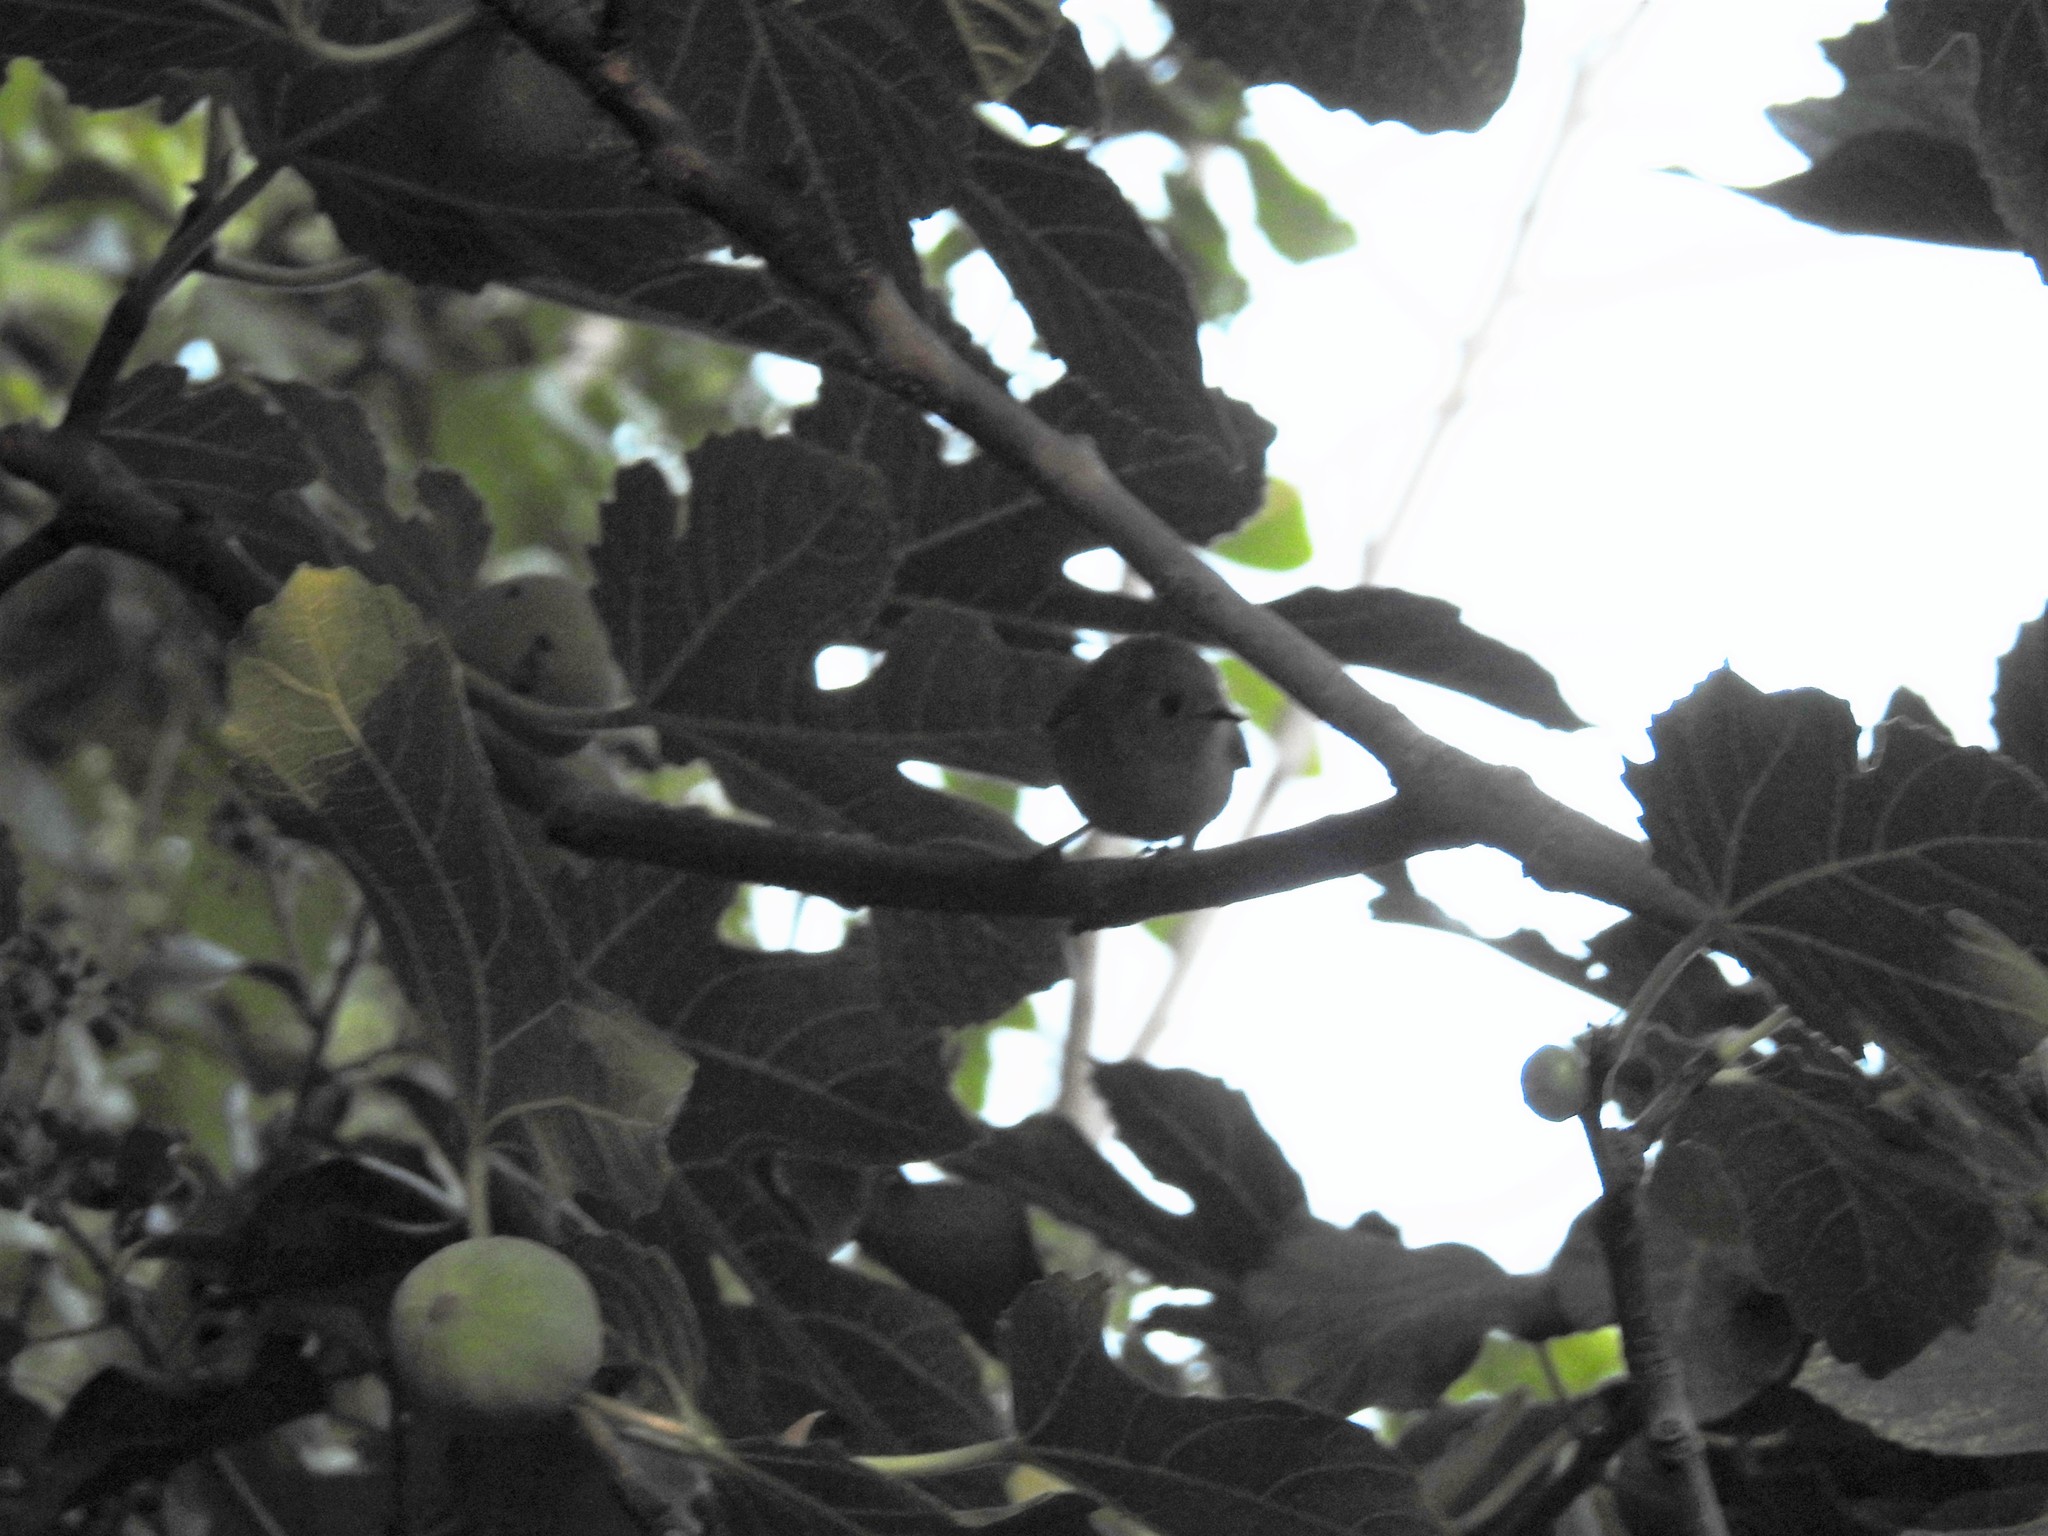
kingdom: Animalia
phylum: Chordata
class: Aves
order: Passeriformes
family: Regulidae
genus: Regulus
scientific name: Regulus calendula
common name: Ruby-crowned kinglet
